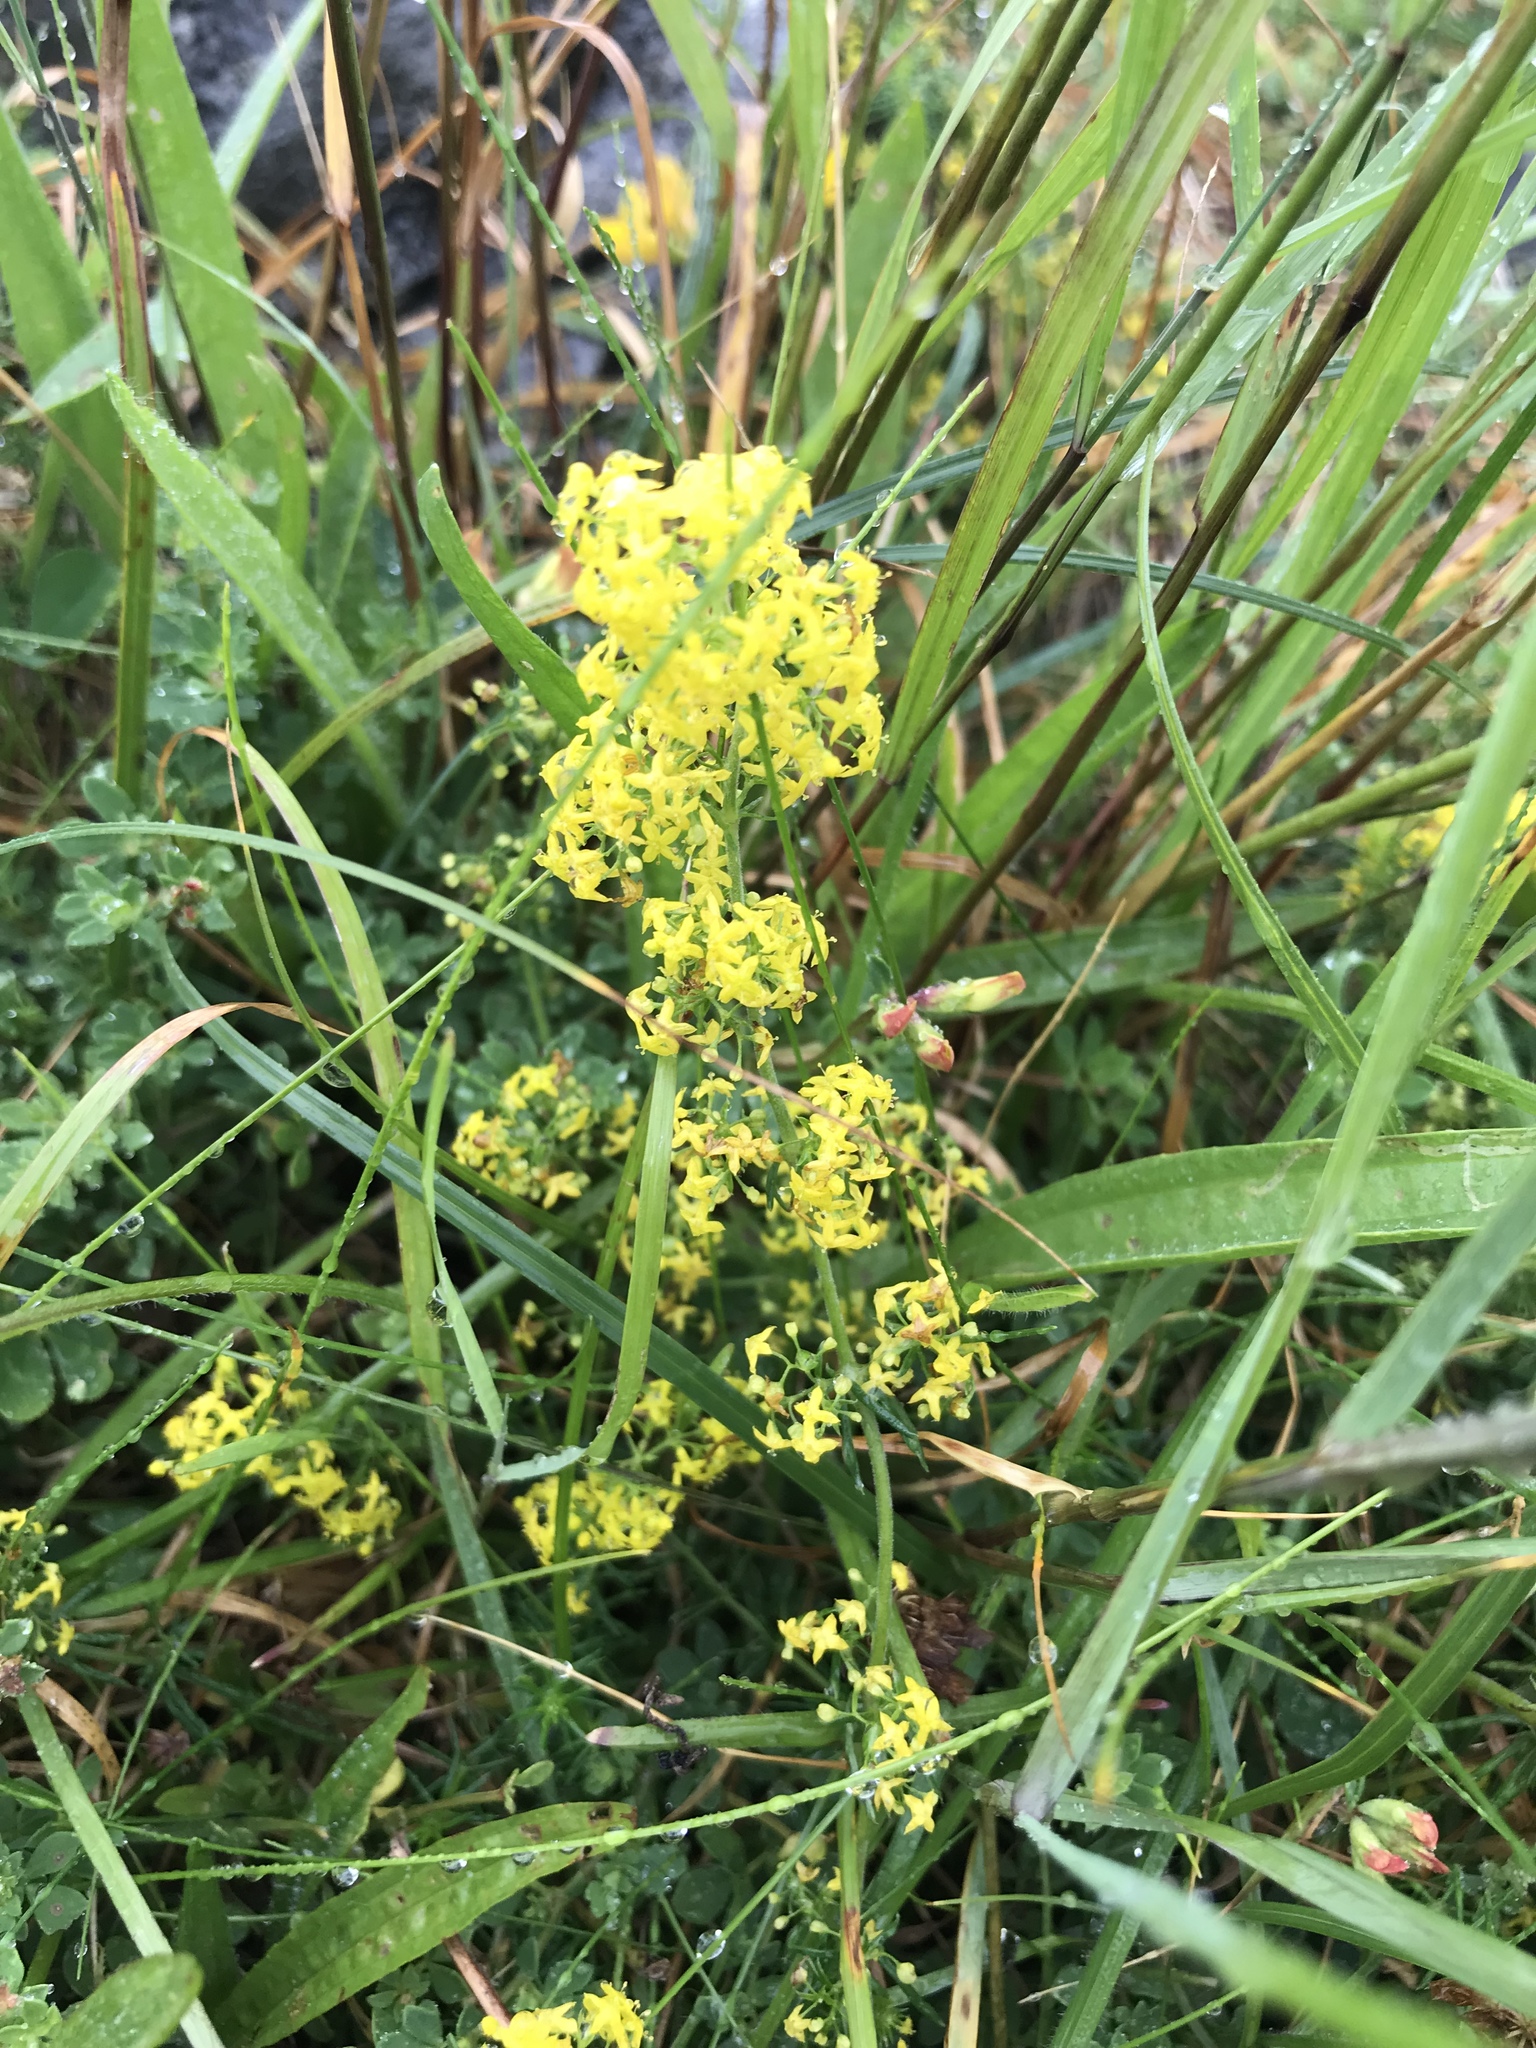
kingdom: Plantae
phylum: Tracheophyta
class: Magnoliopsida
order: Gentianales
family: Rubiaceae
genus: Galium
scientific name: Galium verum
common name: Lady's bedstraw
